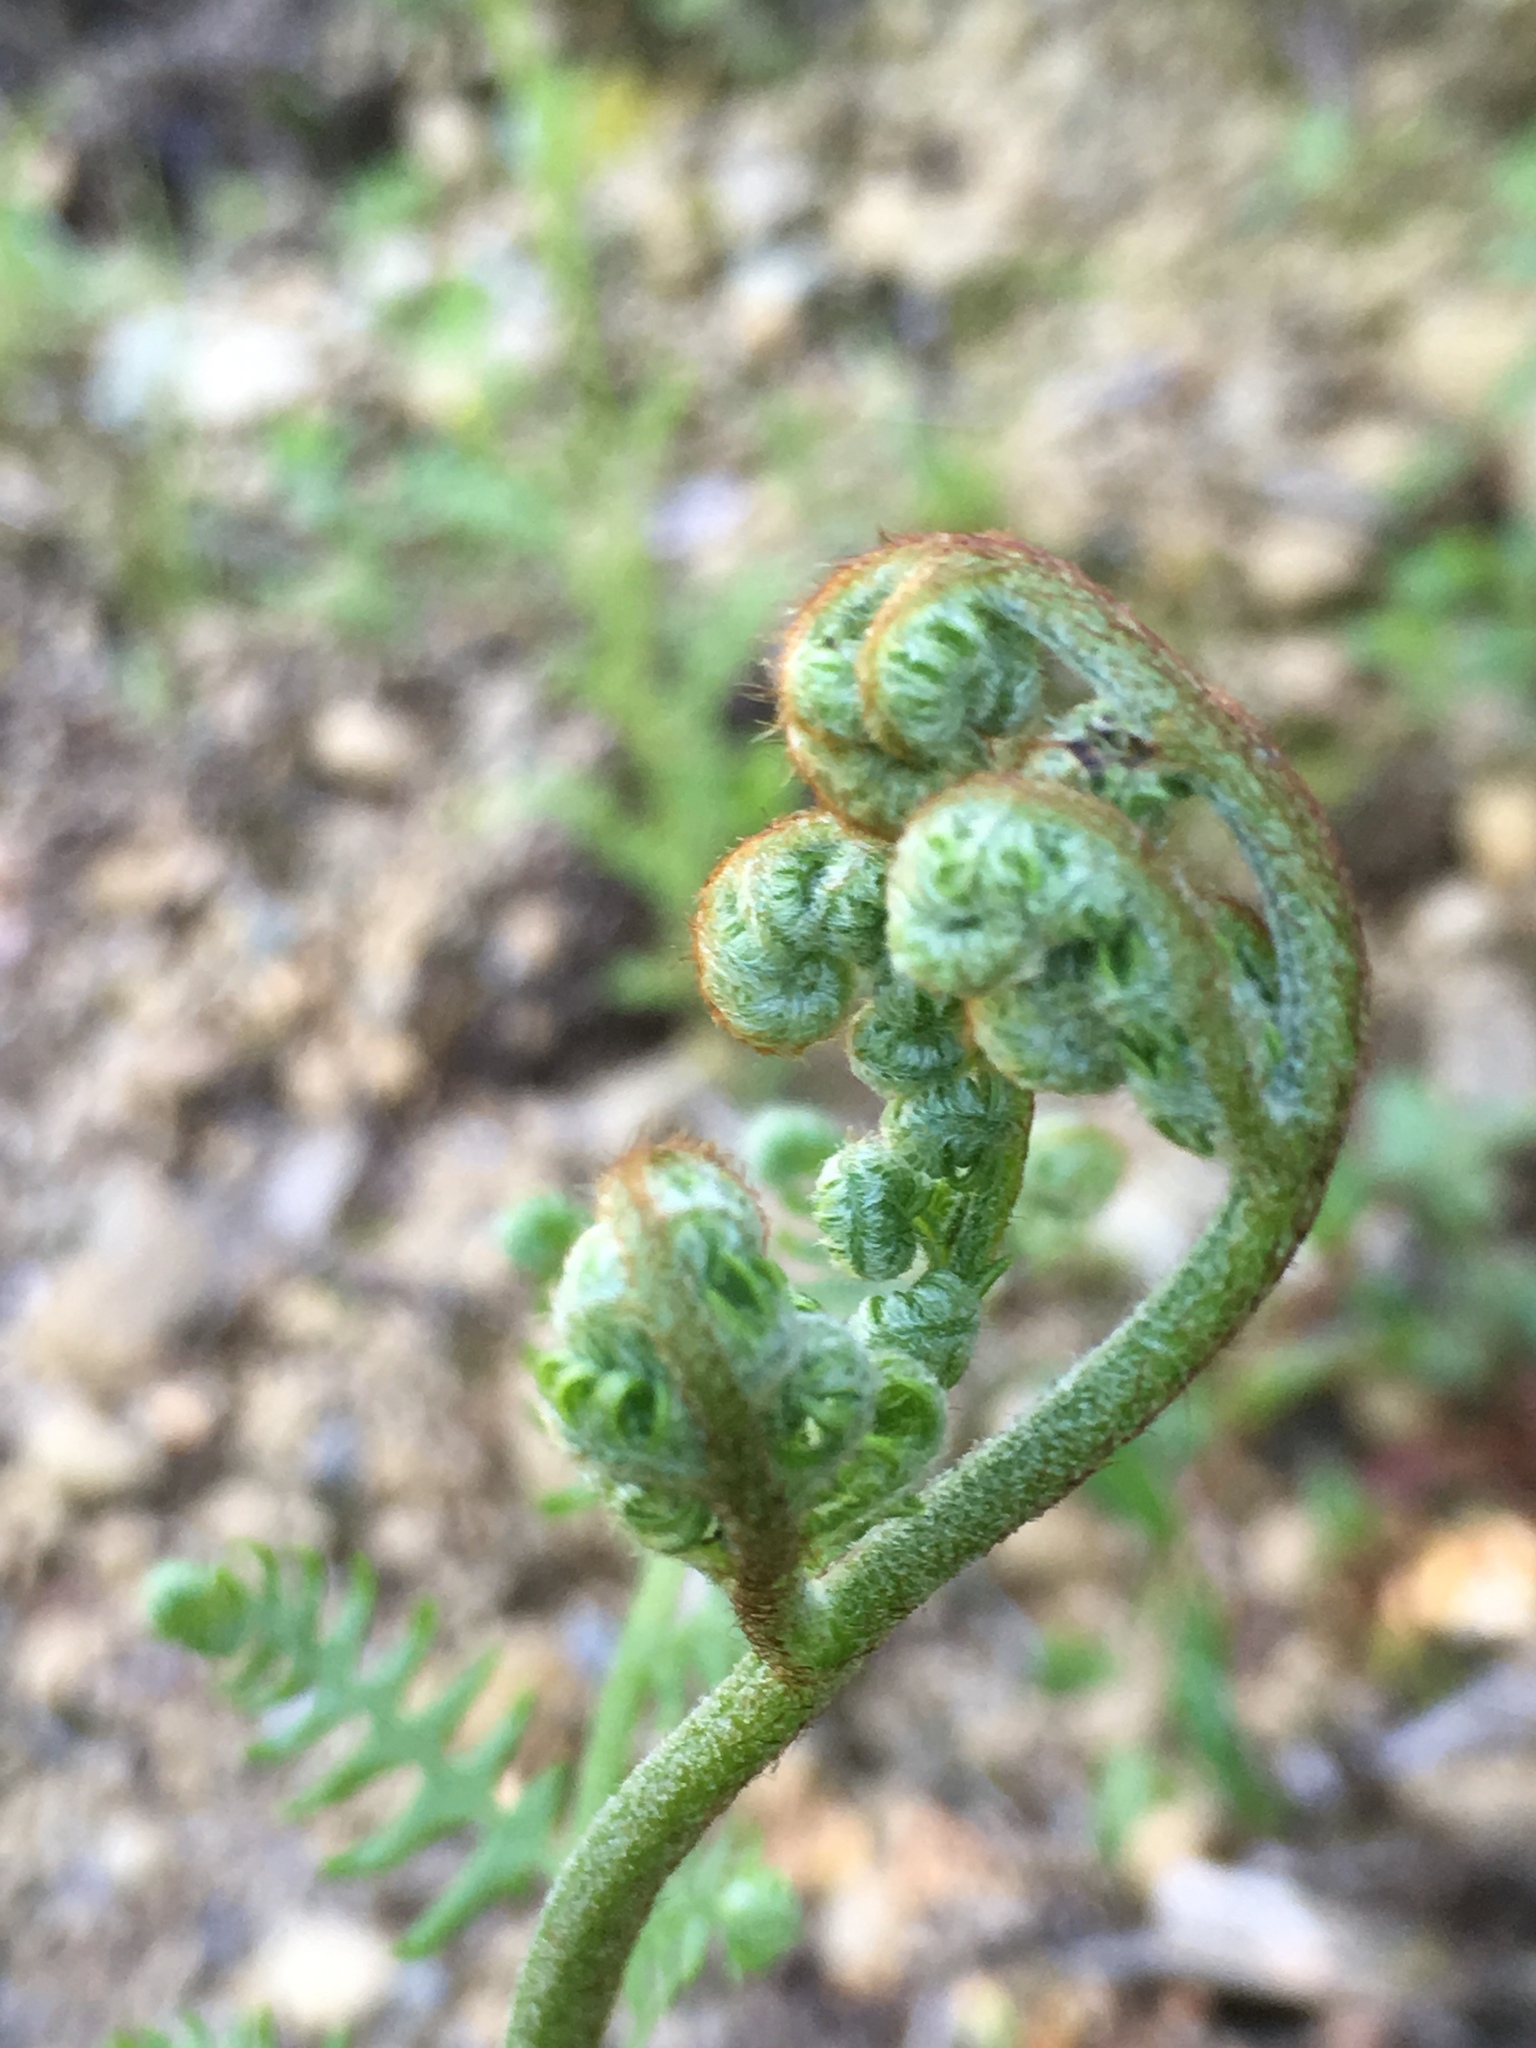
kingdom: Plantae
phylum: Tracheophyta
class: Polypodiopsida
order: Polypodiales
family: Dennstaedtiaceae
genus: Pteridium
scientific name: Pteridium aquilinum
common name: Bracken
